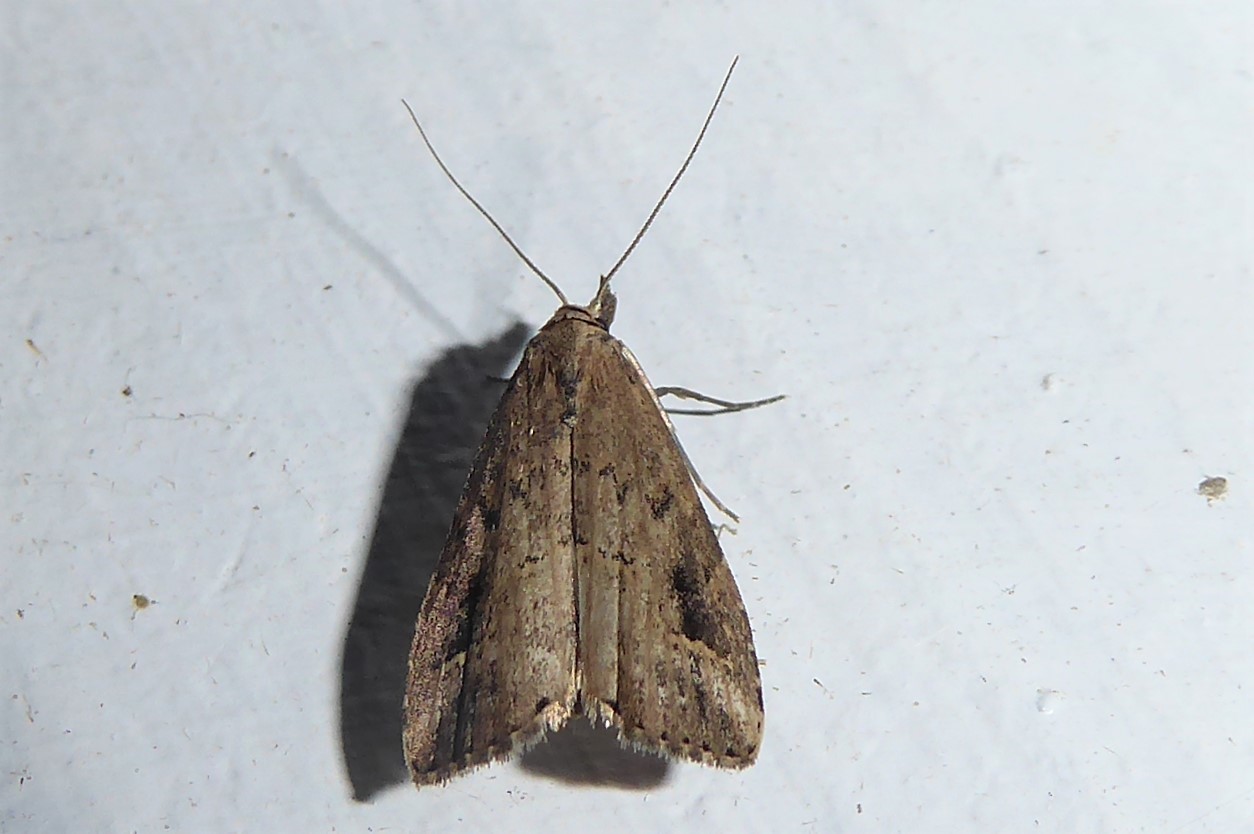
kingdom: Animalia
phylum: Arthropoda
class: Insecta
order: Lepidoptera
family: Erebidae
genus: Schrankia
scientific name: Schrankia costaestrigalis
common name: Pinion-streaked snout
